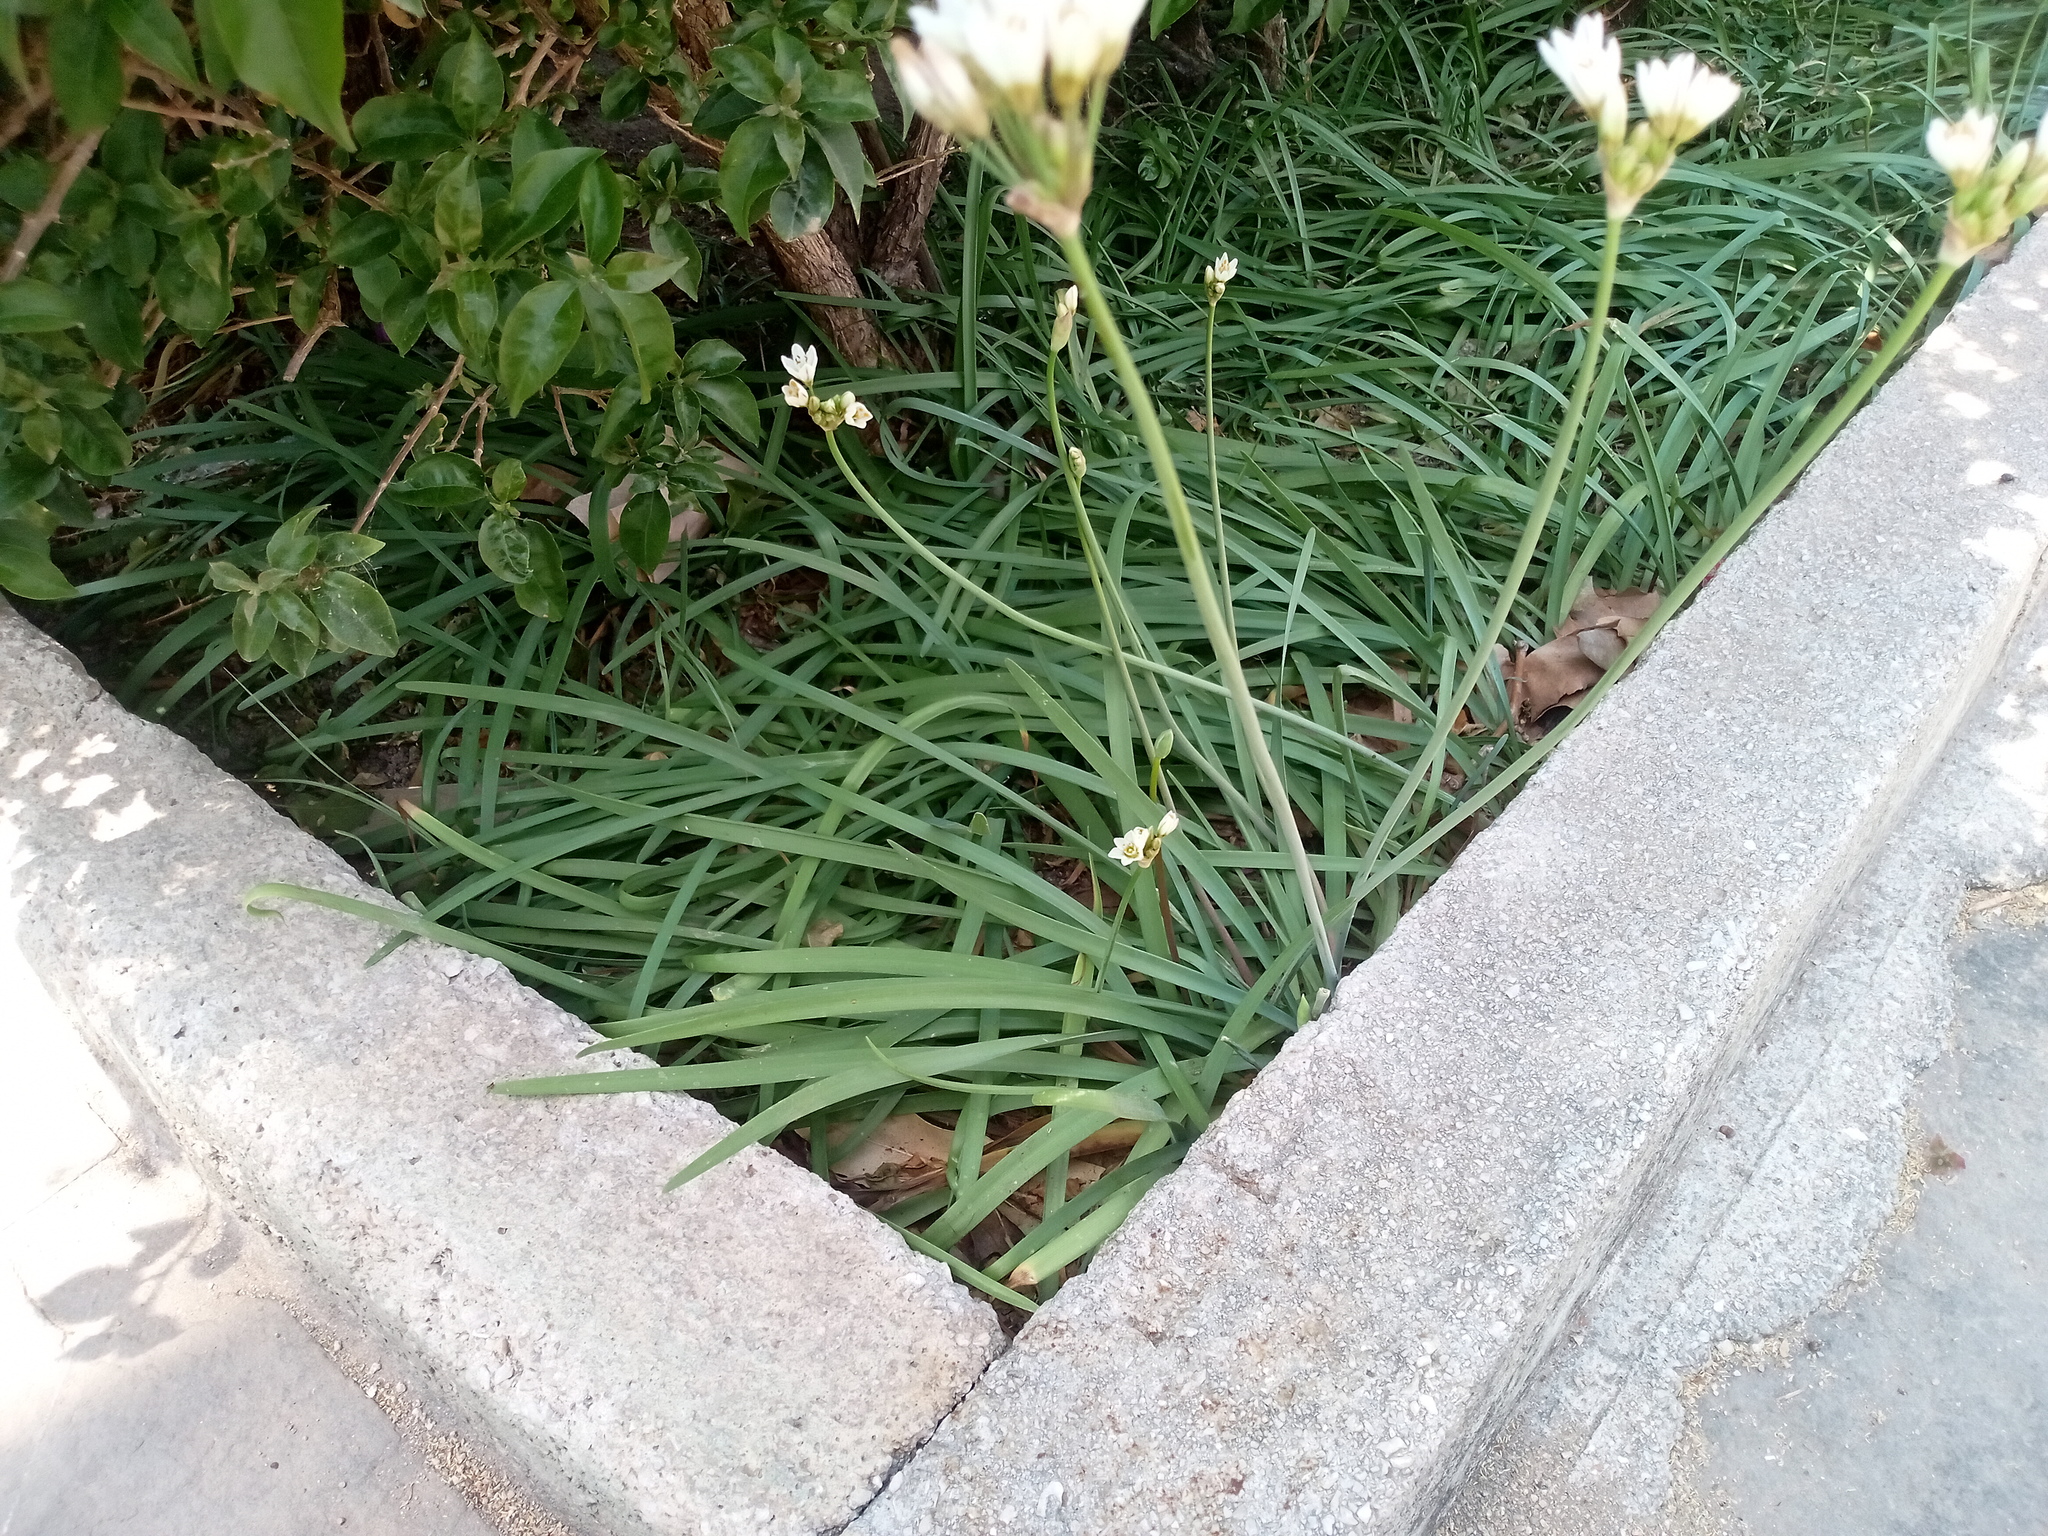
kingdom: Plantae
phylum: Tracheophyta
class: Liliopsida
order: Asparagales
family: Amaryllidaceae
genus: Nothoscordum
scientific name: Nothoscordum gracile
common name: Slender false garlic
